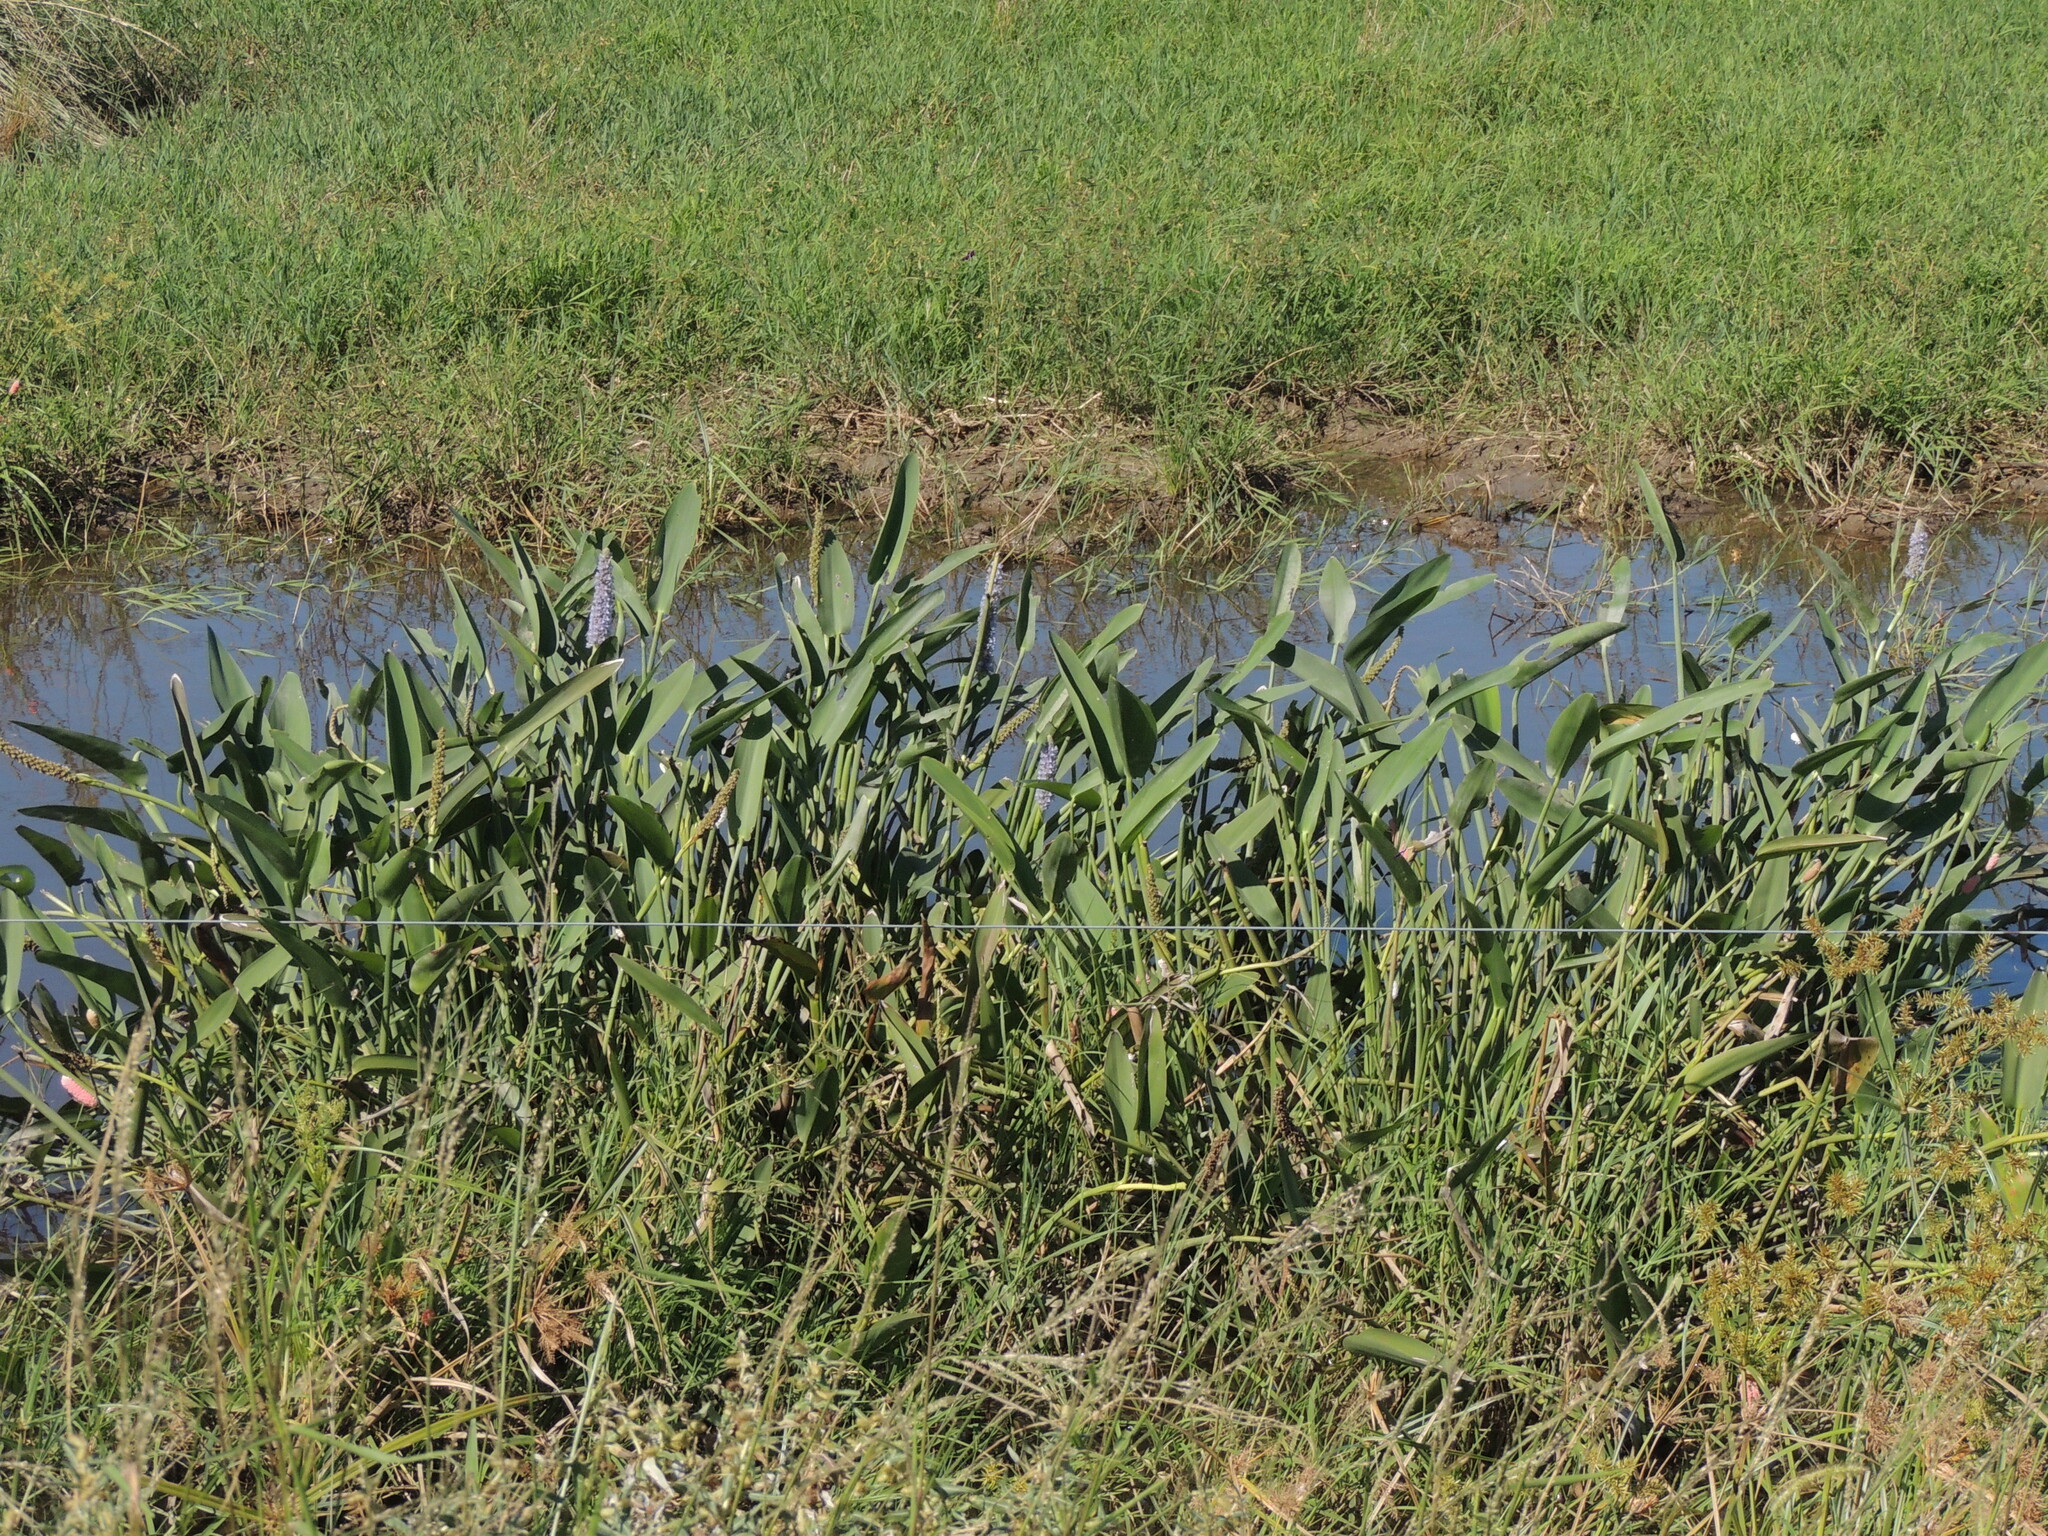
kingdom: Plantae
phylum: Tracheophyta
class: Liliopsida
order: Commelinales
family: Pontederiaceae
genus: Pontederia
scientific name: Pontederia cordata
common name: Pickerelweed
